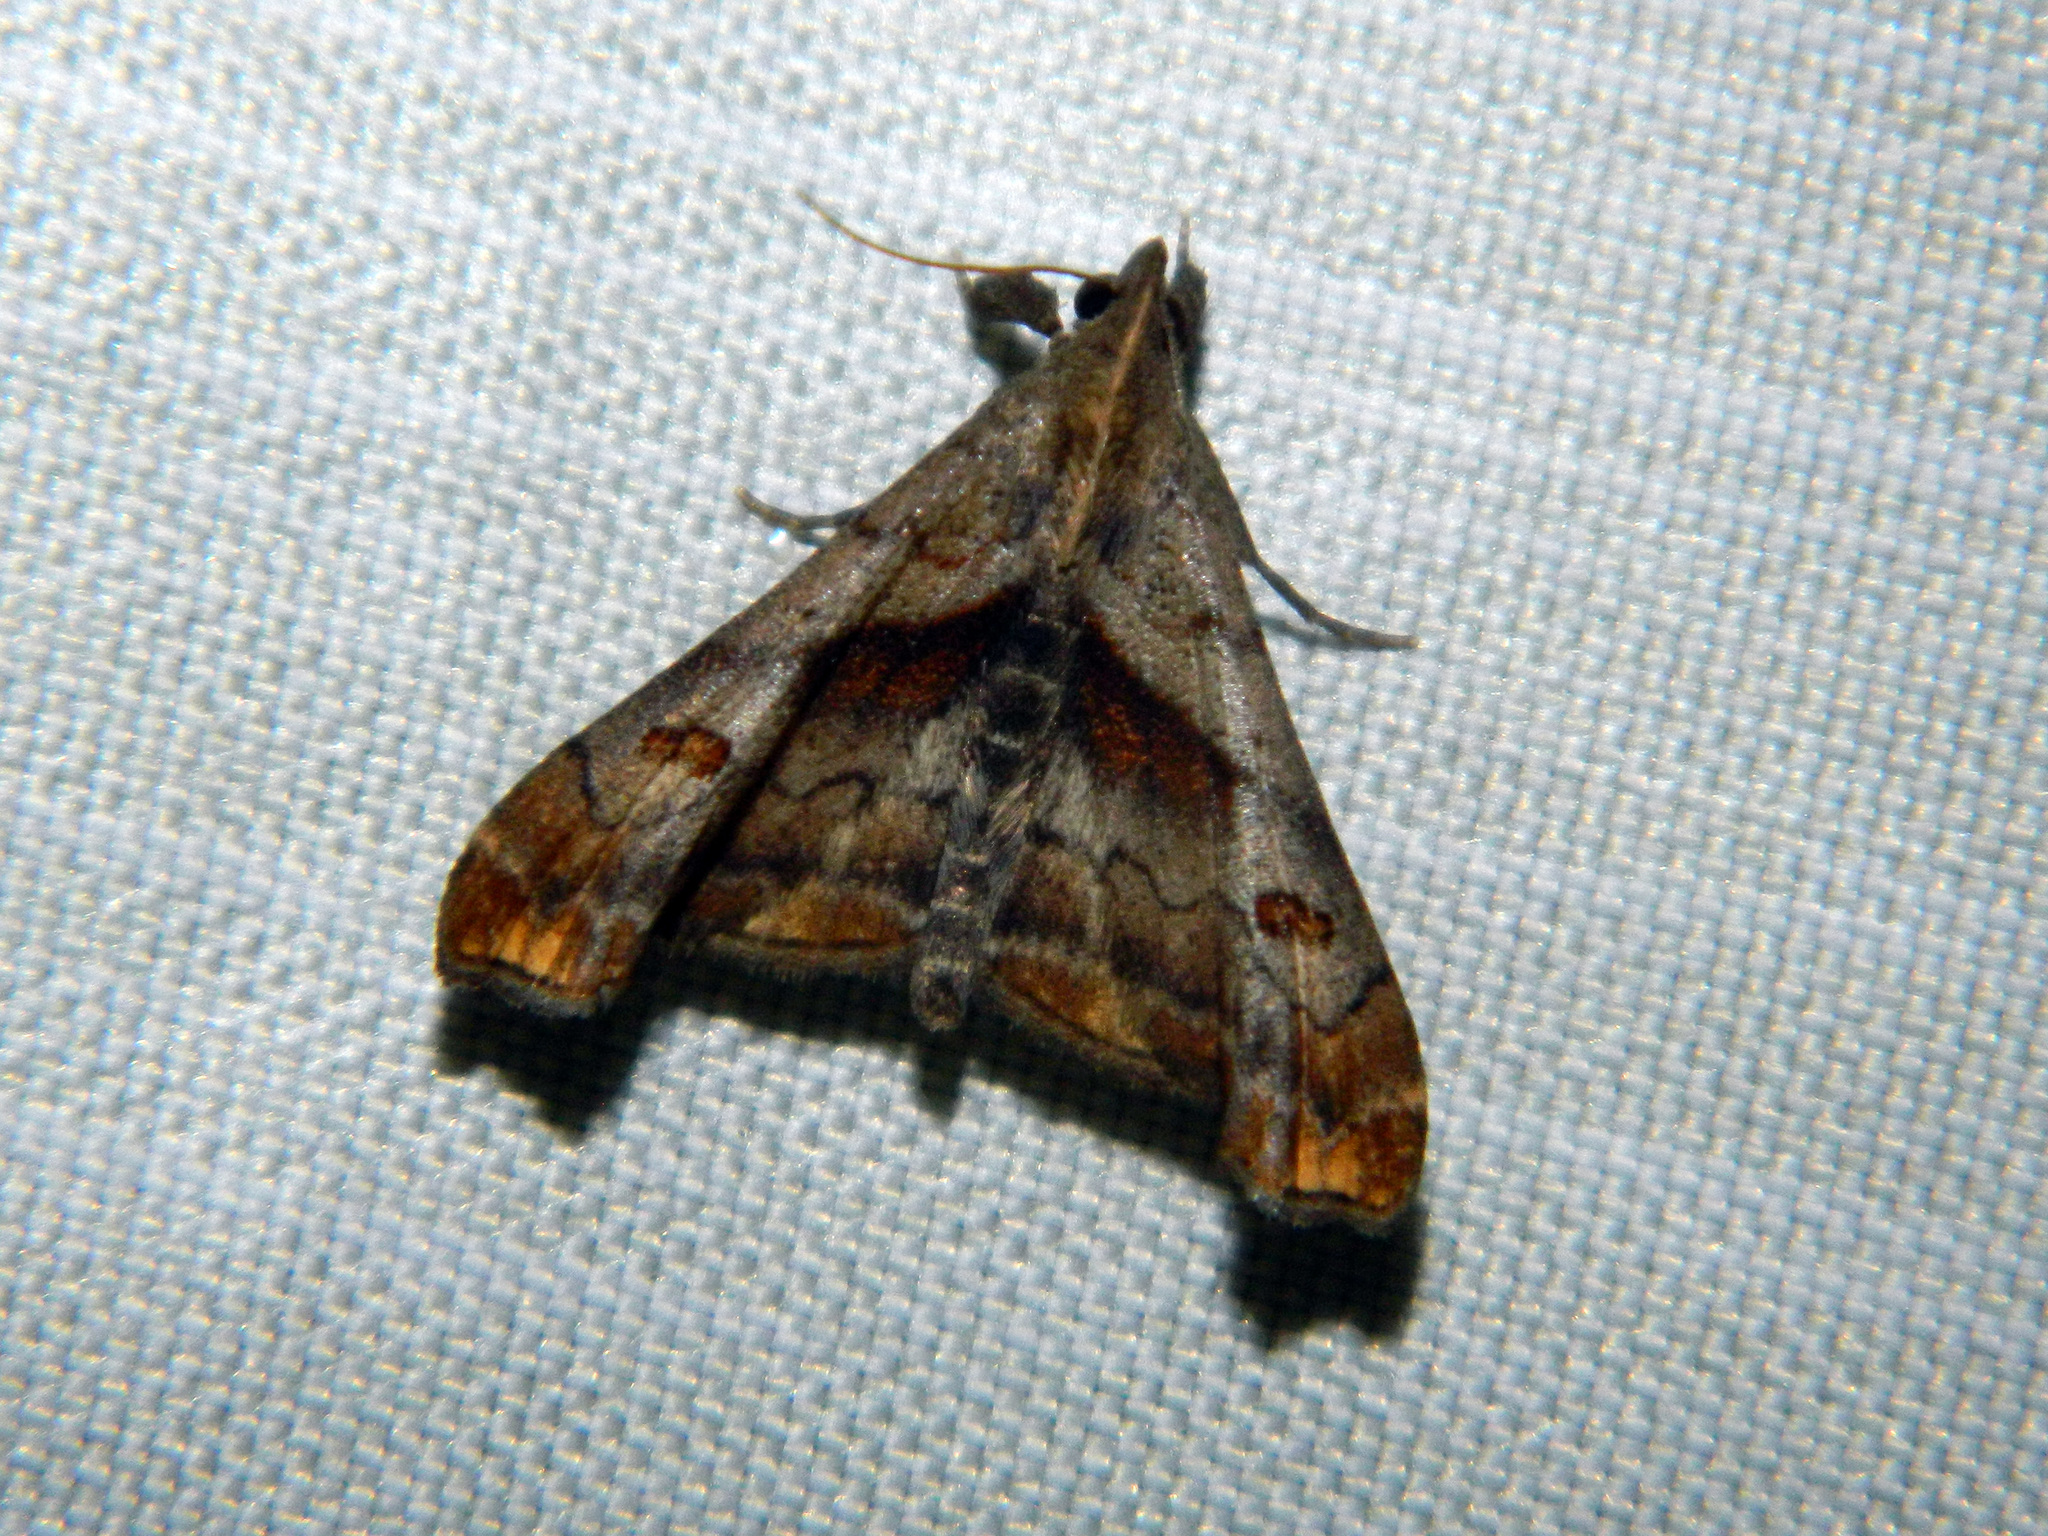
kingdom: Animalia
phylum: Arthropoda
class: Insecta
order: Lepidoptera
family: Erebidae
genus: Palthis
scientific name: Palthis angulalis
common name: Dark-spotted palthis moth
